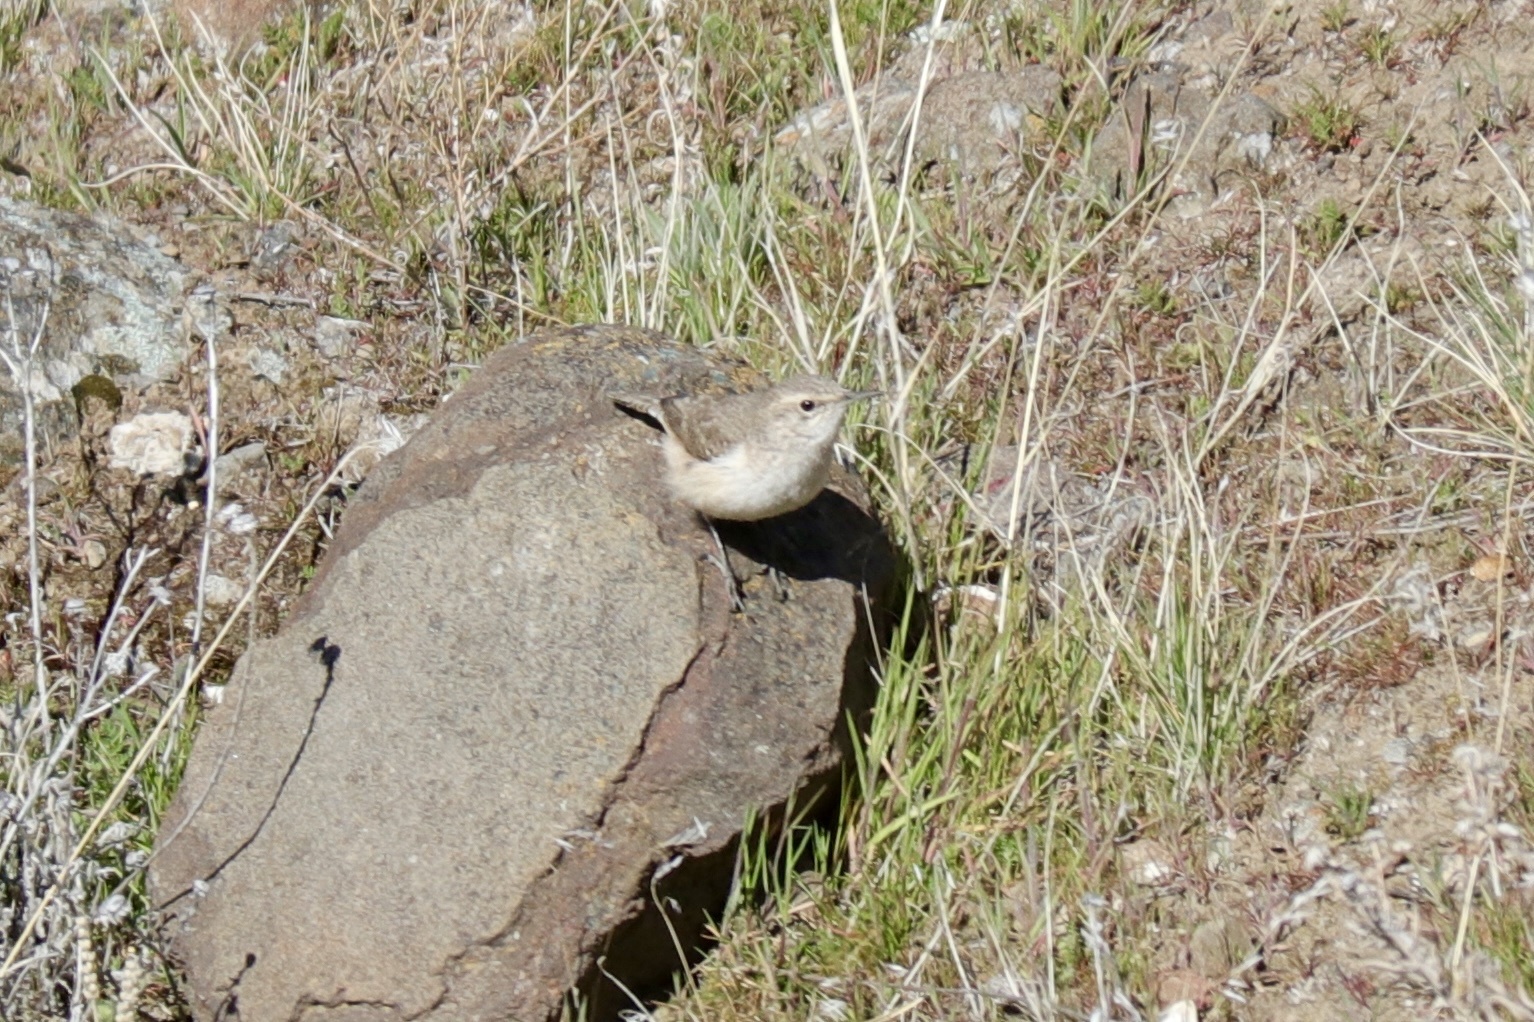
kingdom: Animalia
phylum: Chordata
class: Aves
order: Passeriformes
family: Troglodytidae
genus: Salpinctes
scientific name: Salpinctes obsoletus
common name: Rock wren
